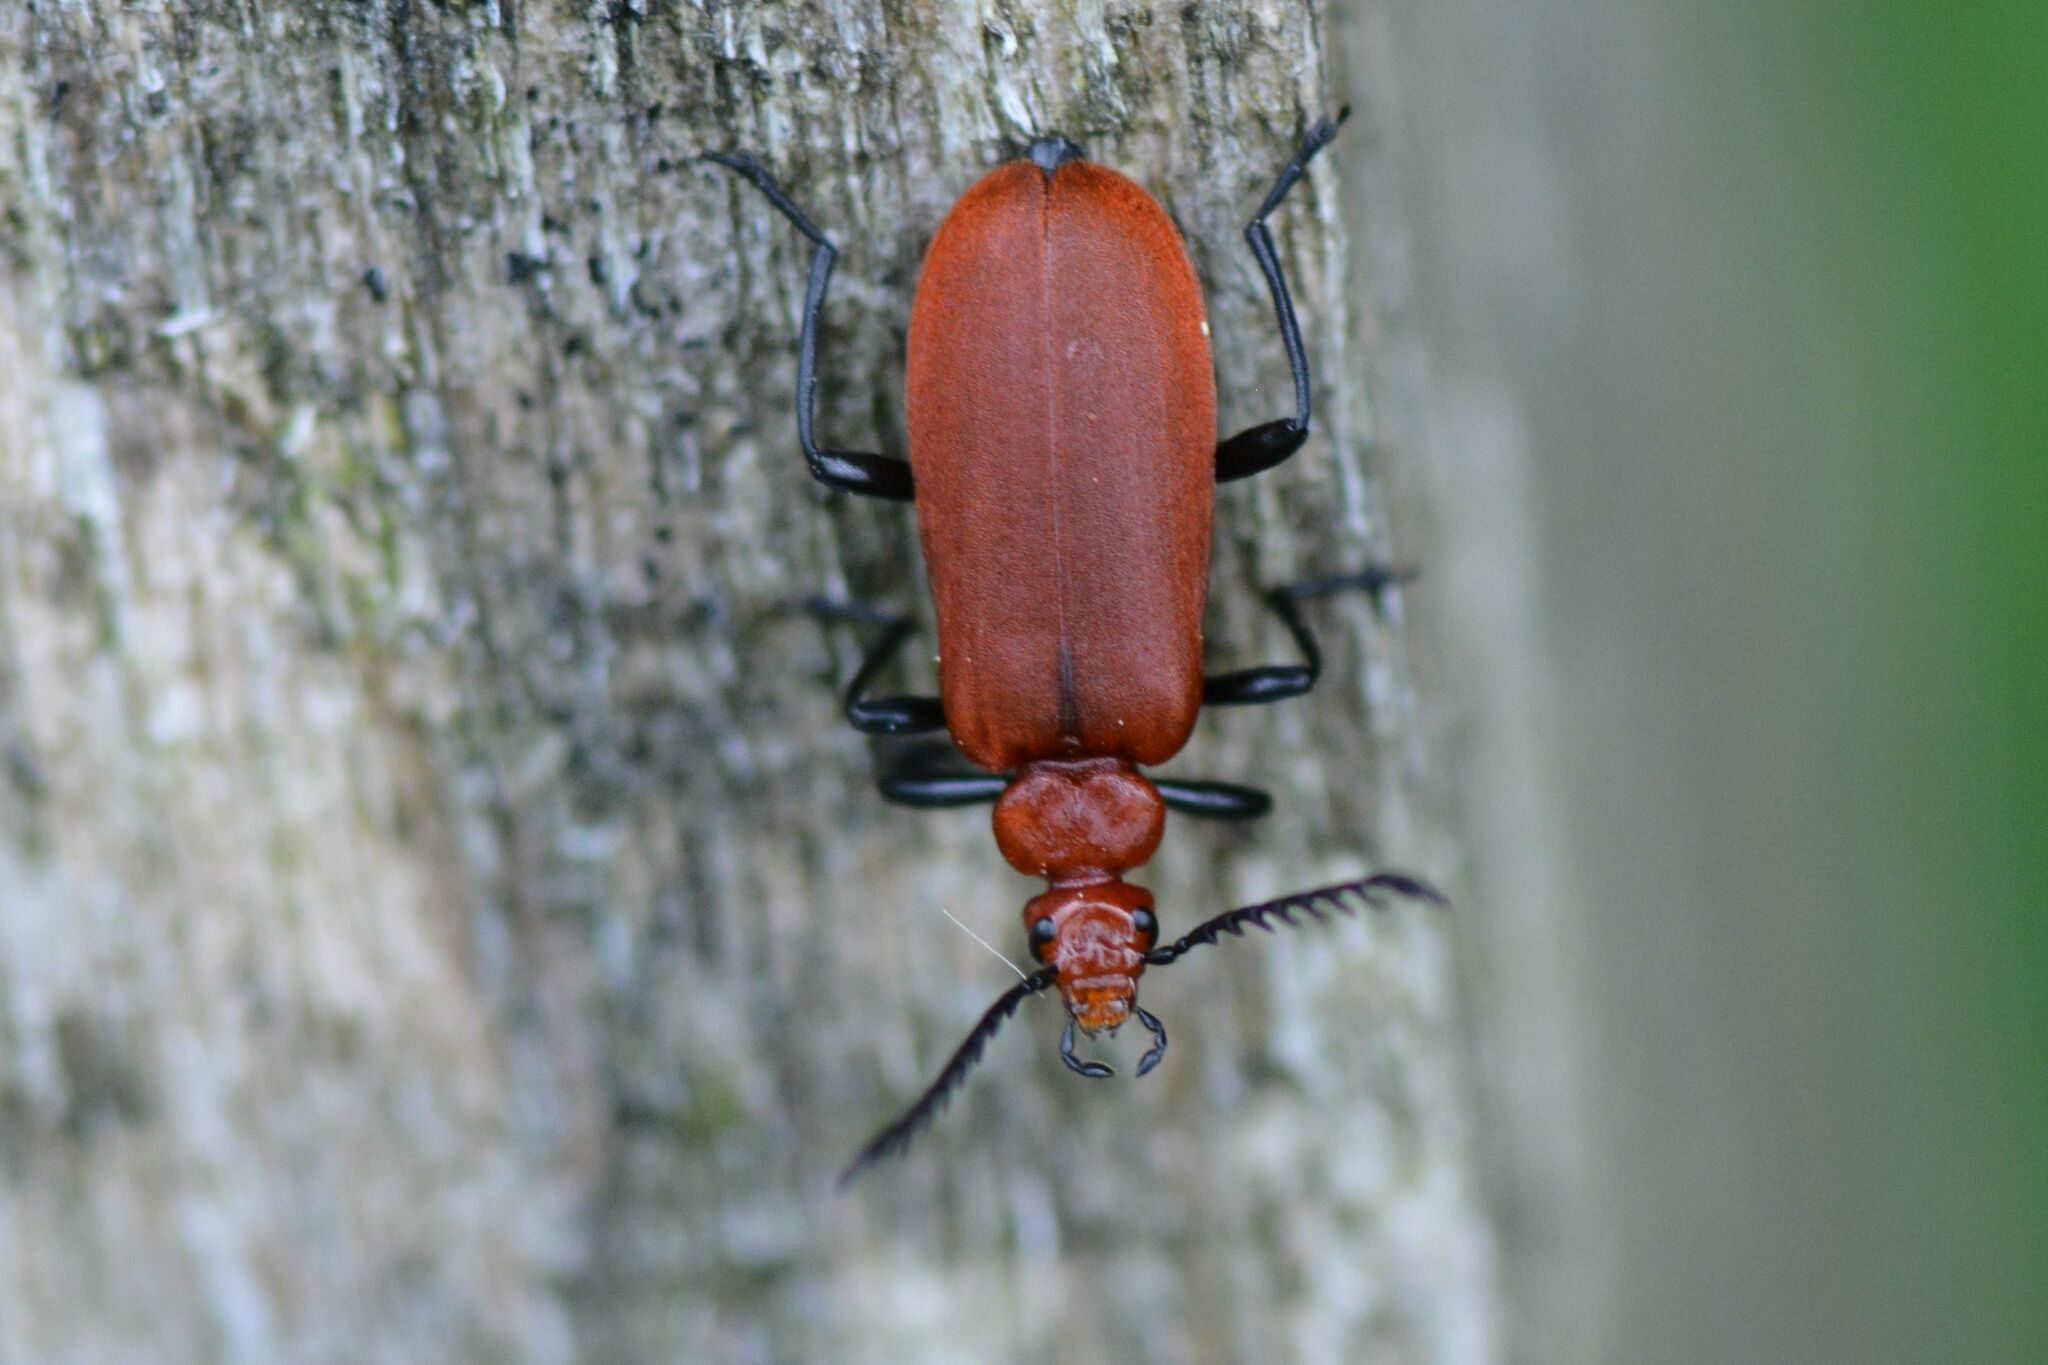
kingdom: Animalia
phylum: Arthropoda
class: Insecta
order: Coleoptera
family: Pyrochroidae
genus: Pyrochroa
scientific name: Pyrochroa serraticornis
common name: Red-headed cardinal beetle
